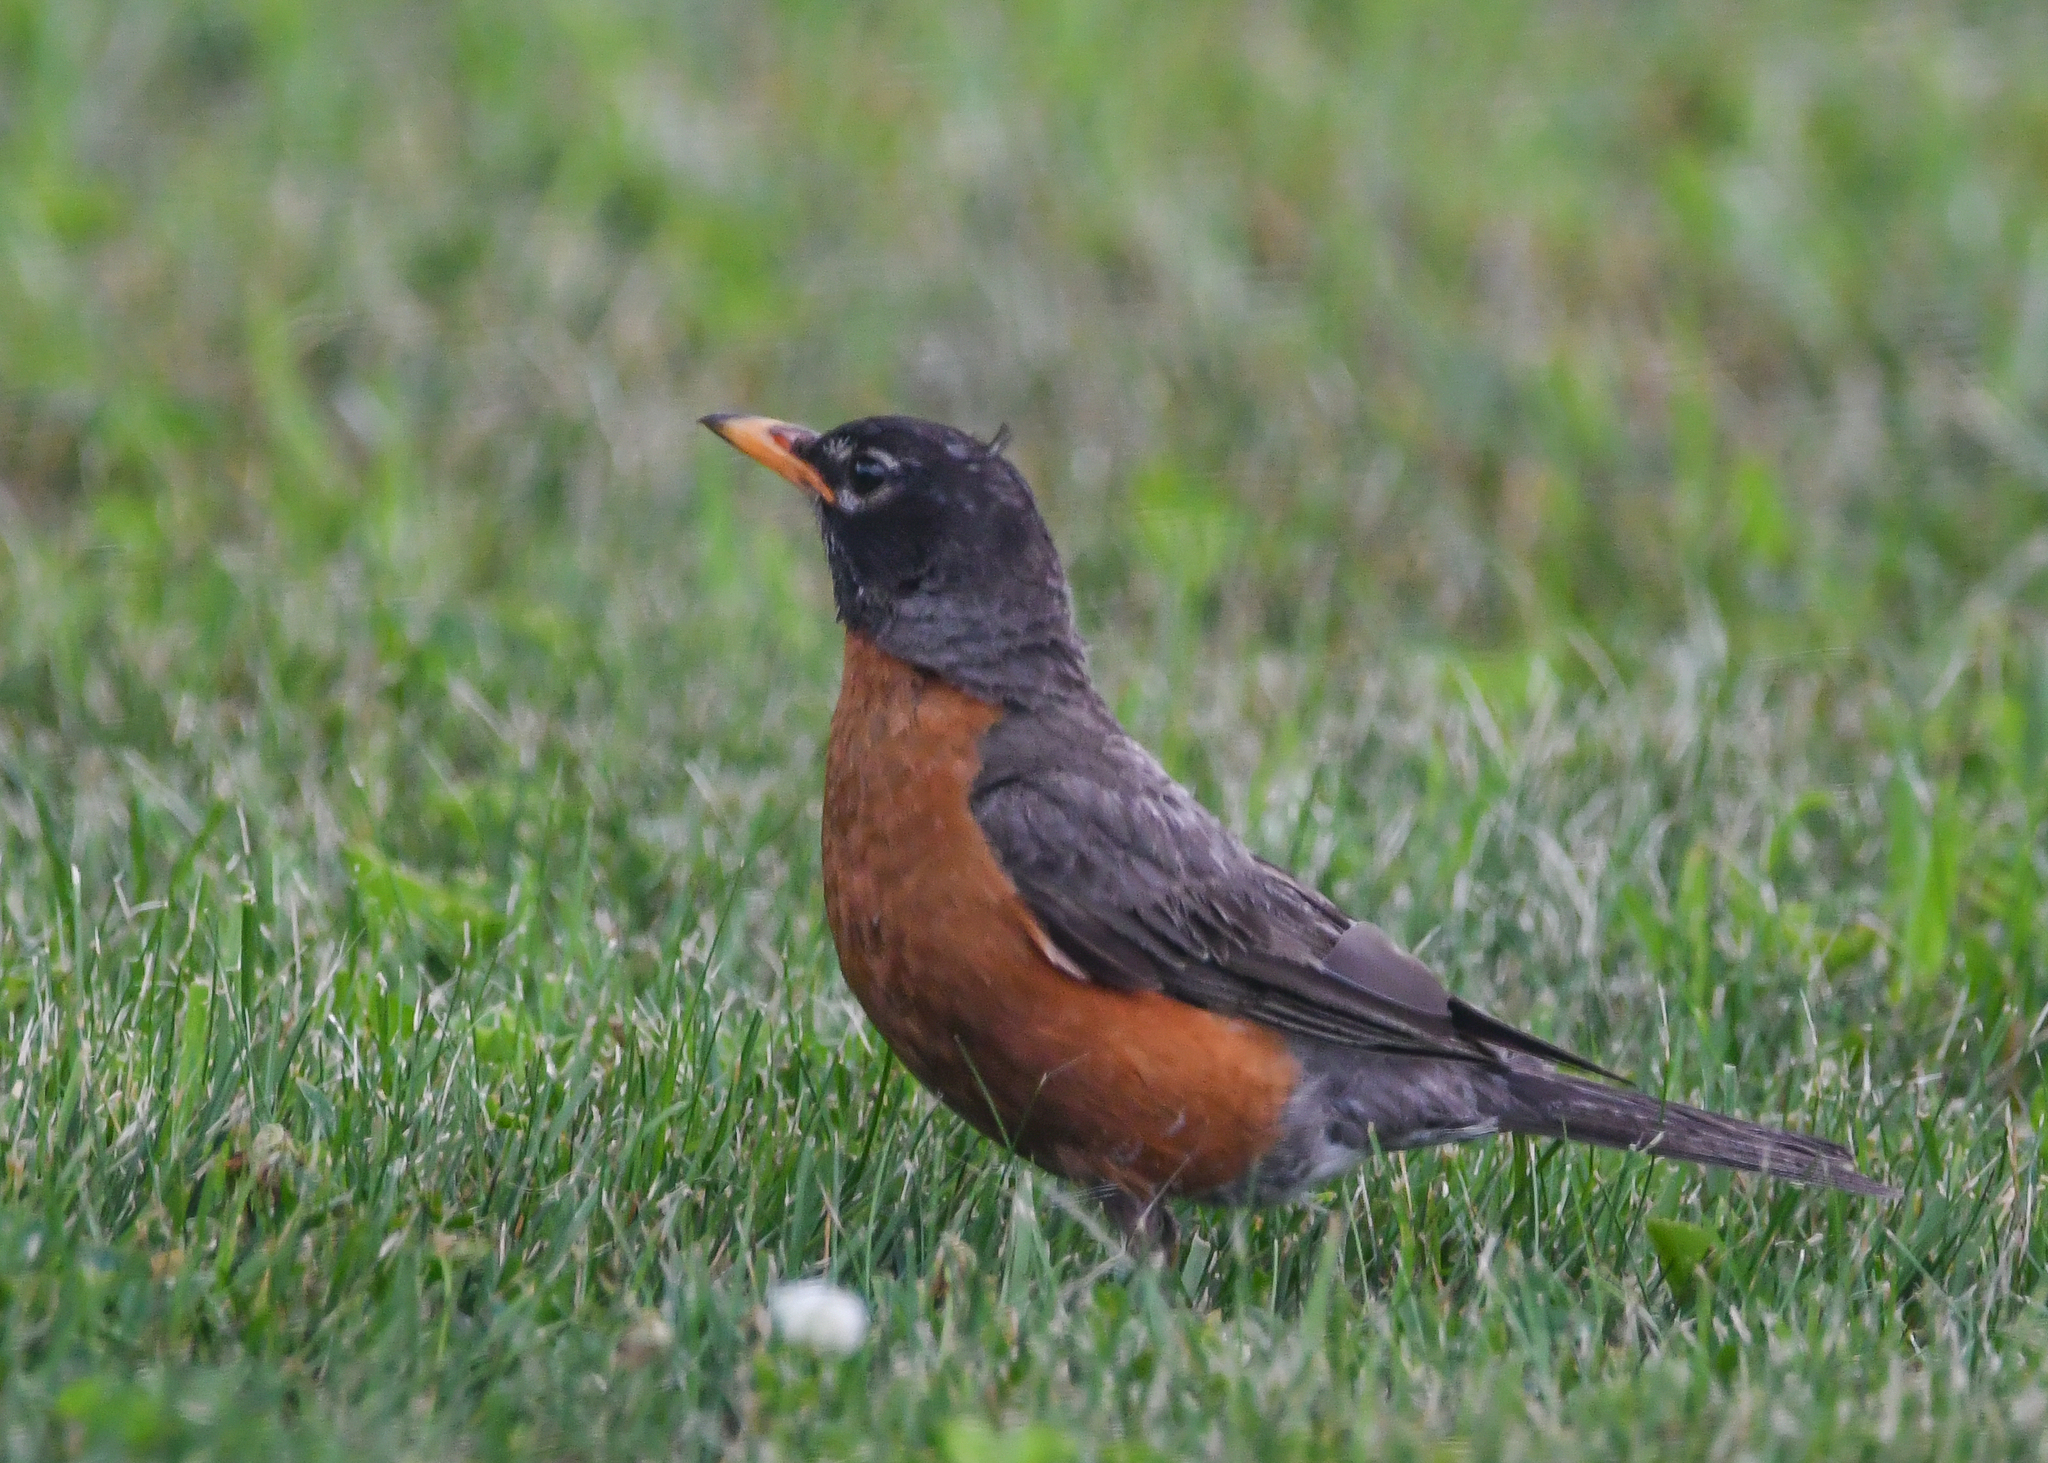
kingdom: Animalia
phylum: Chordata
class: Aves
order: Passeriformes
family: Turdidae
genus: Turdus
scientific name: Turdus migratorius
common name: American robin
